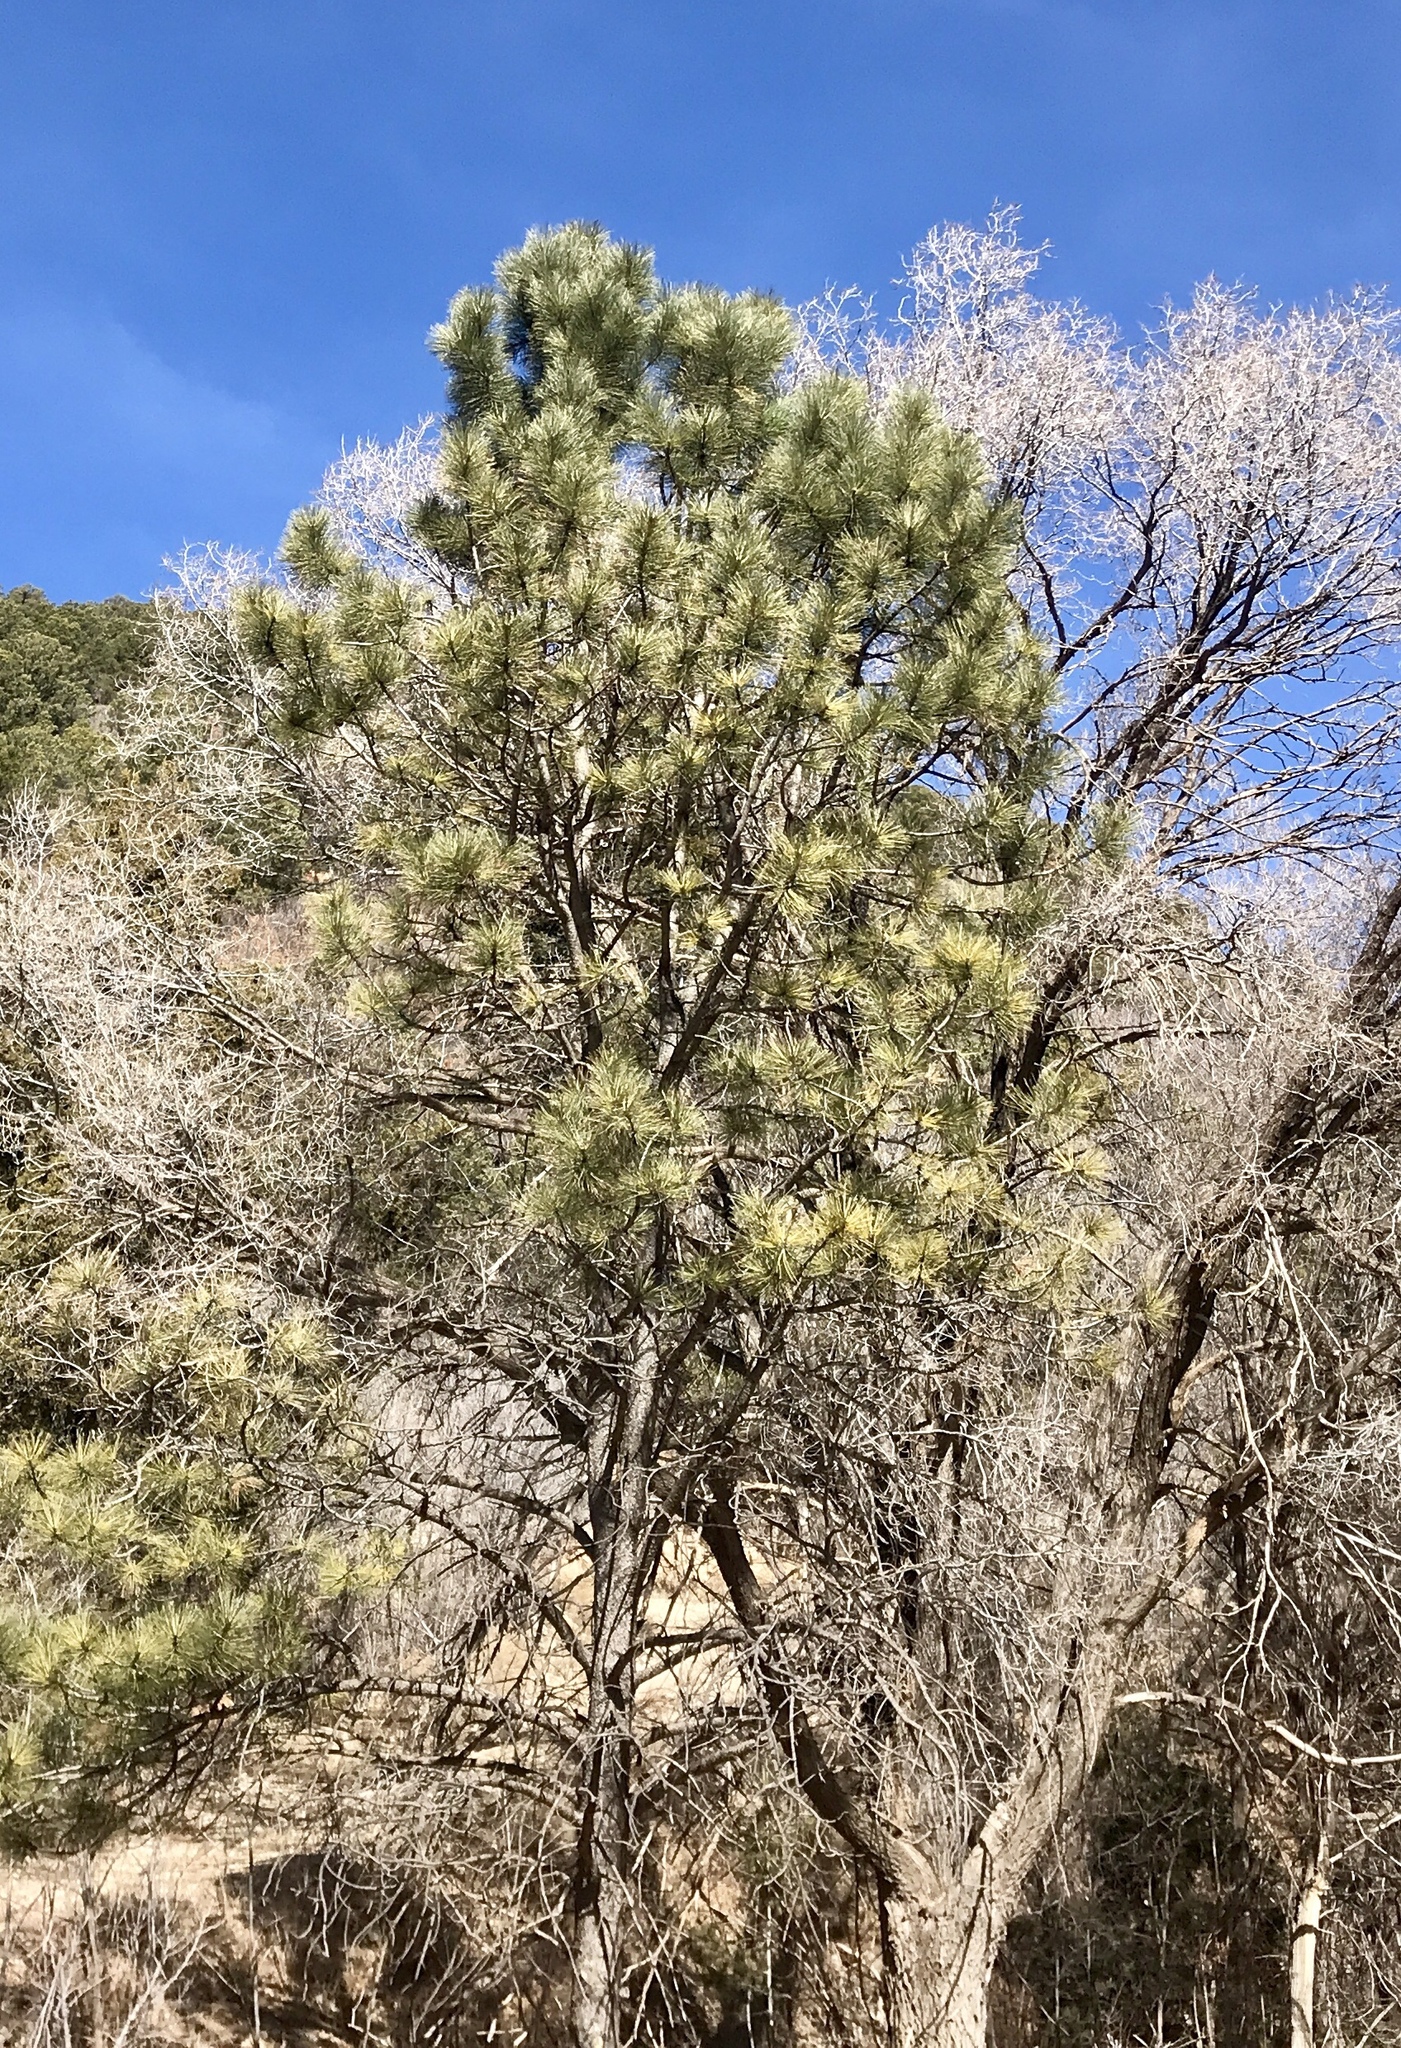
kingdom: Plantae
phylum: Tracheophyta
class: Pinopsida
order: Pinales
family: Pinaceae
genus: Pinus
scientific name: Pinus ponderosa
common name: Western yellow-pine
